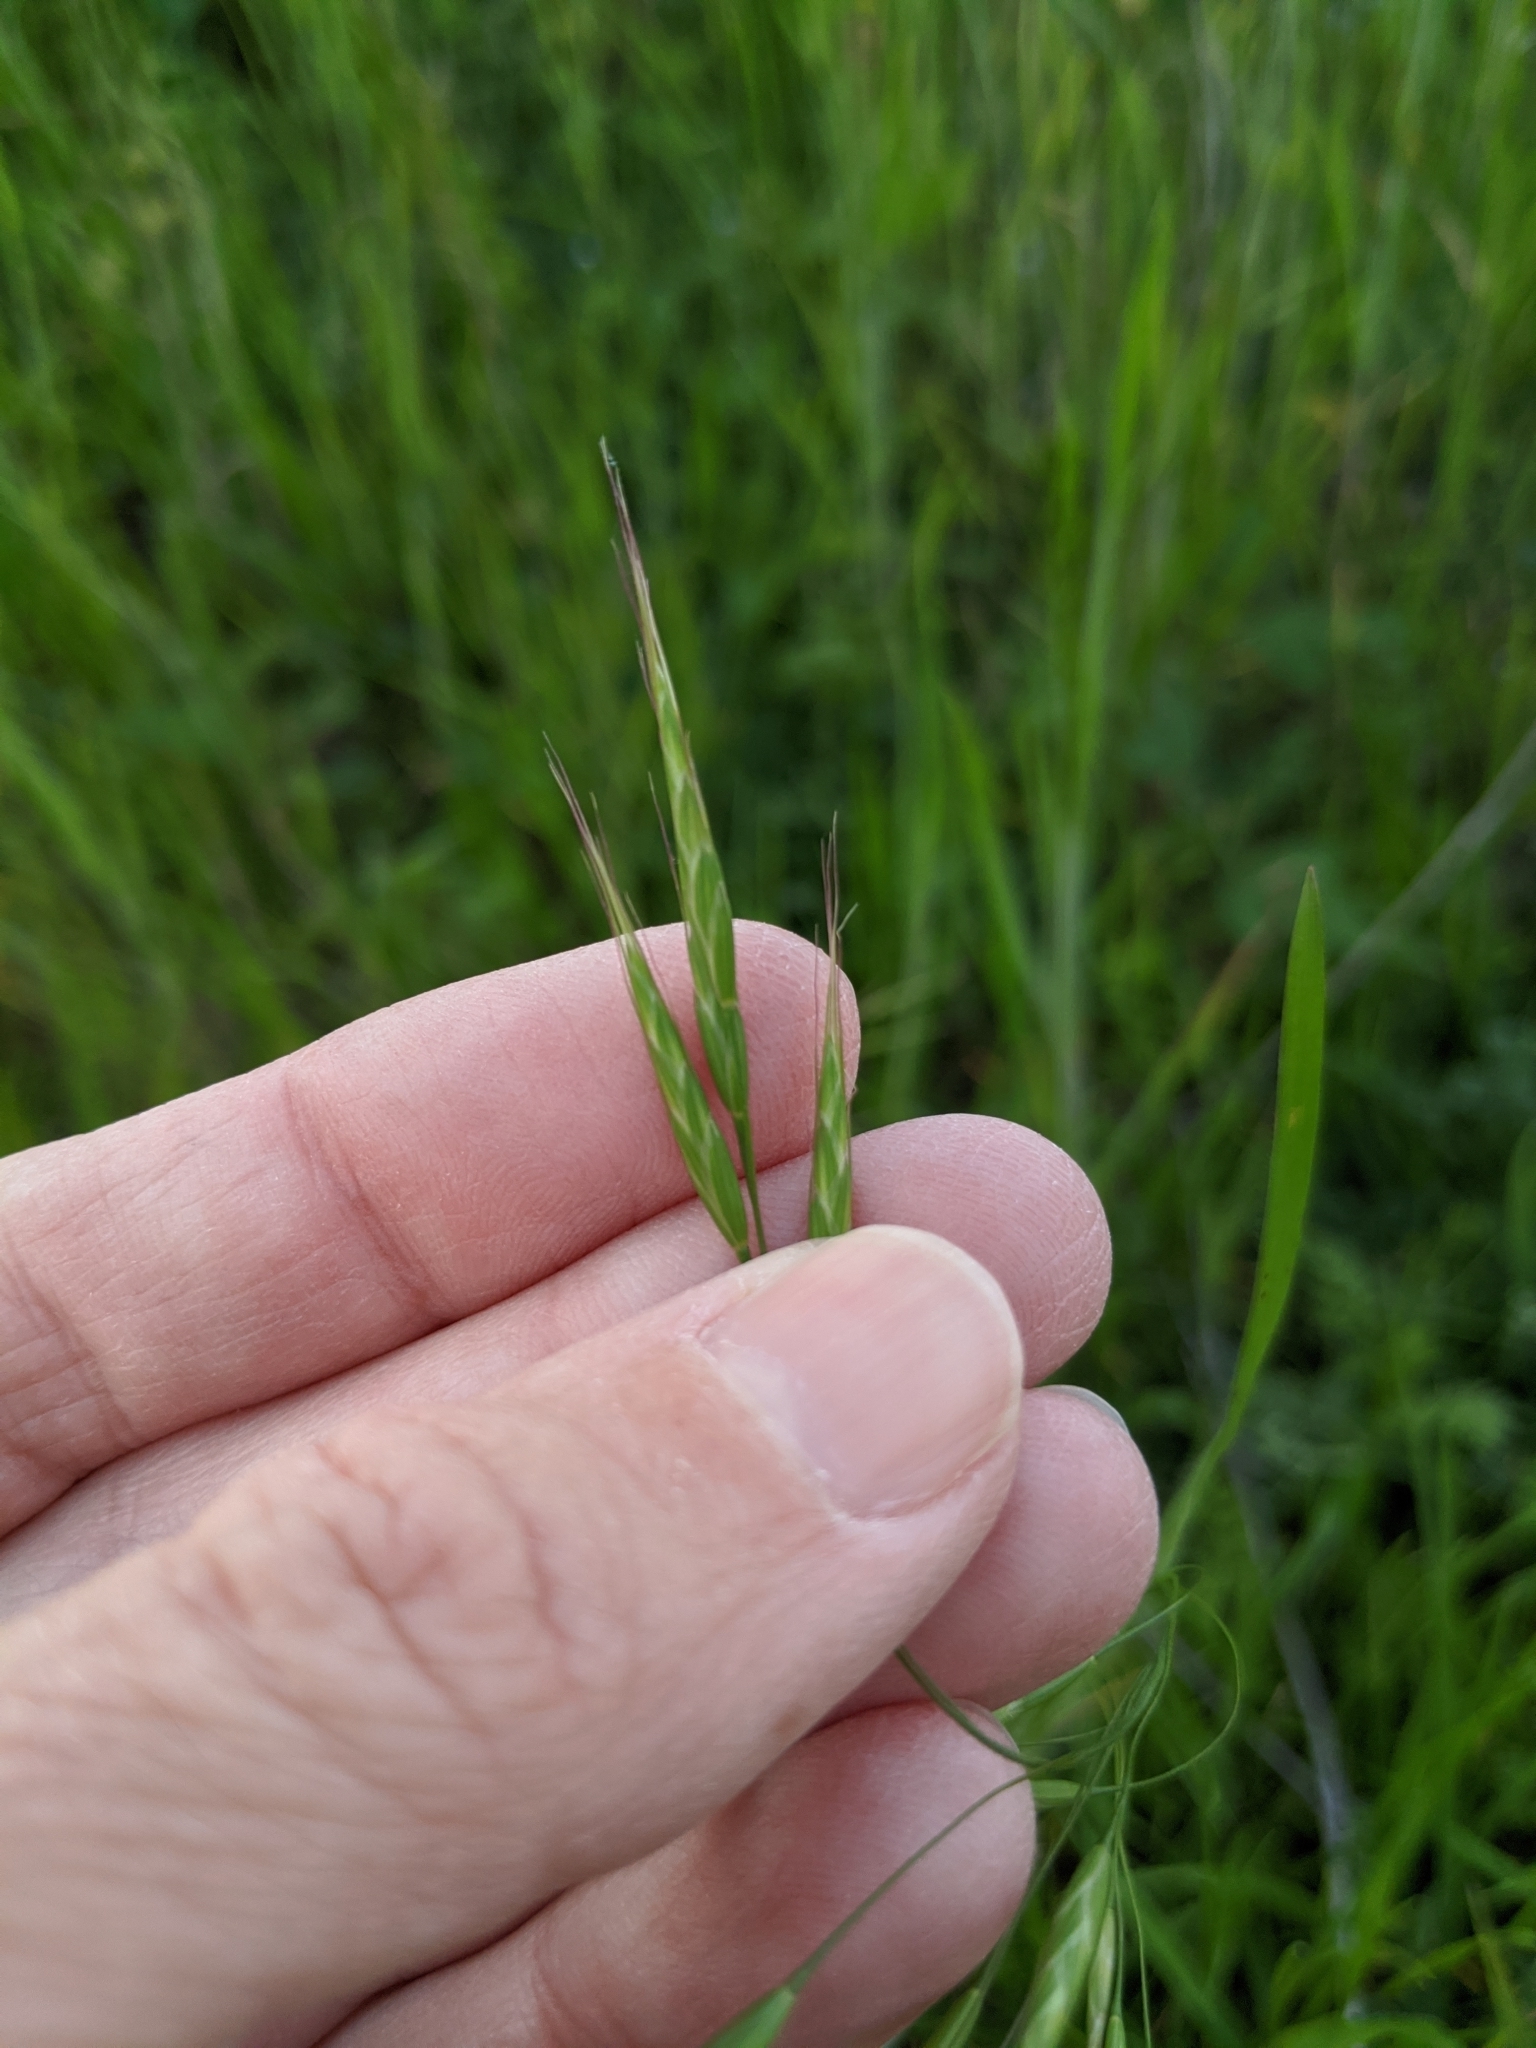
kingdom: Plantae
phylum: Tracheophyta
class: Liliopsida
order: Poales
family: Poaceae
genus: Bromus
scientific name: Bromus japonicus
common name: Japanese brome
